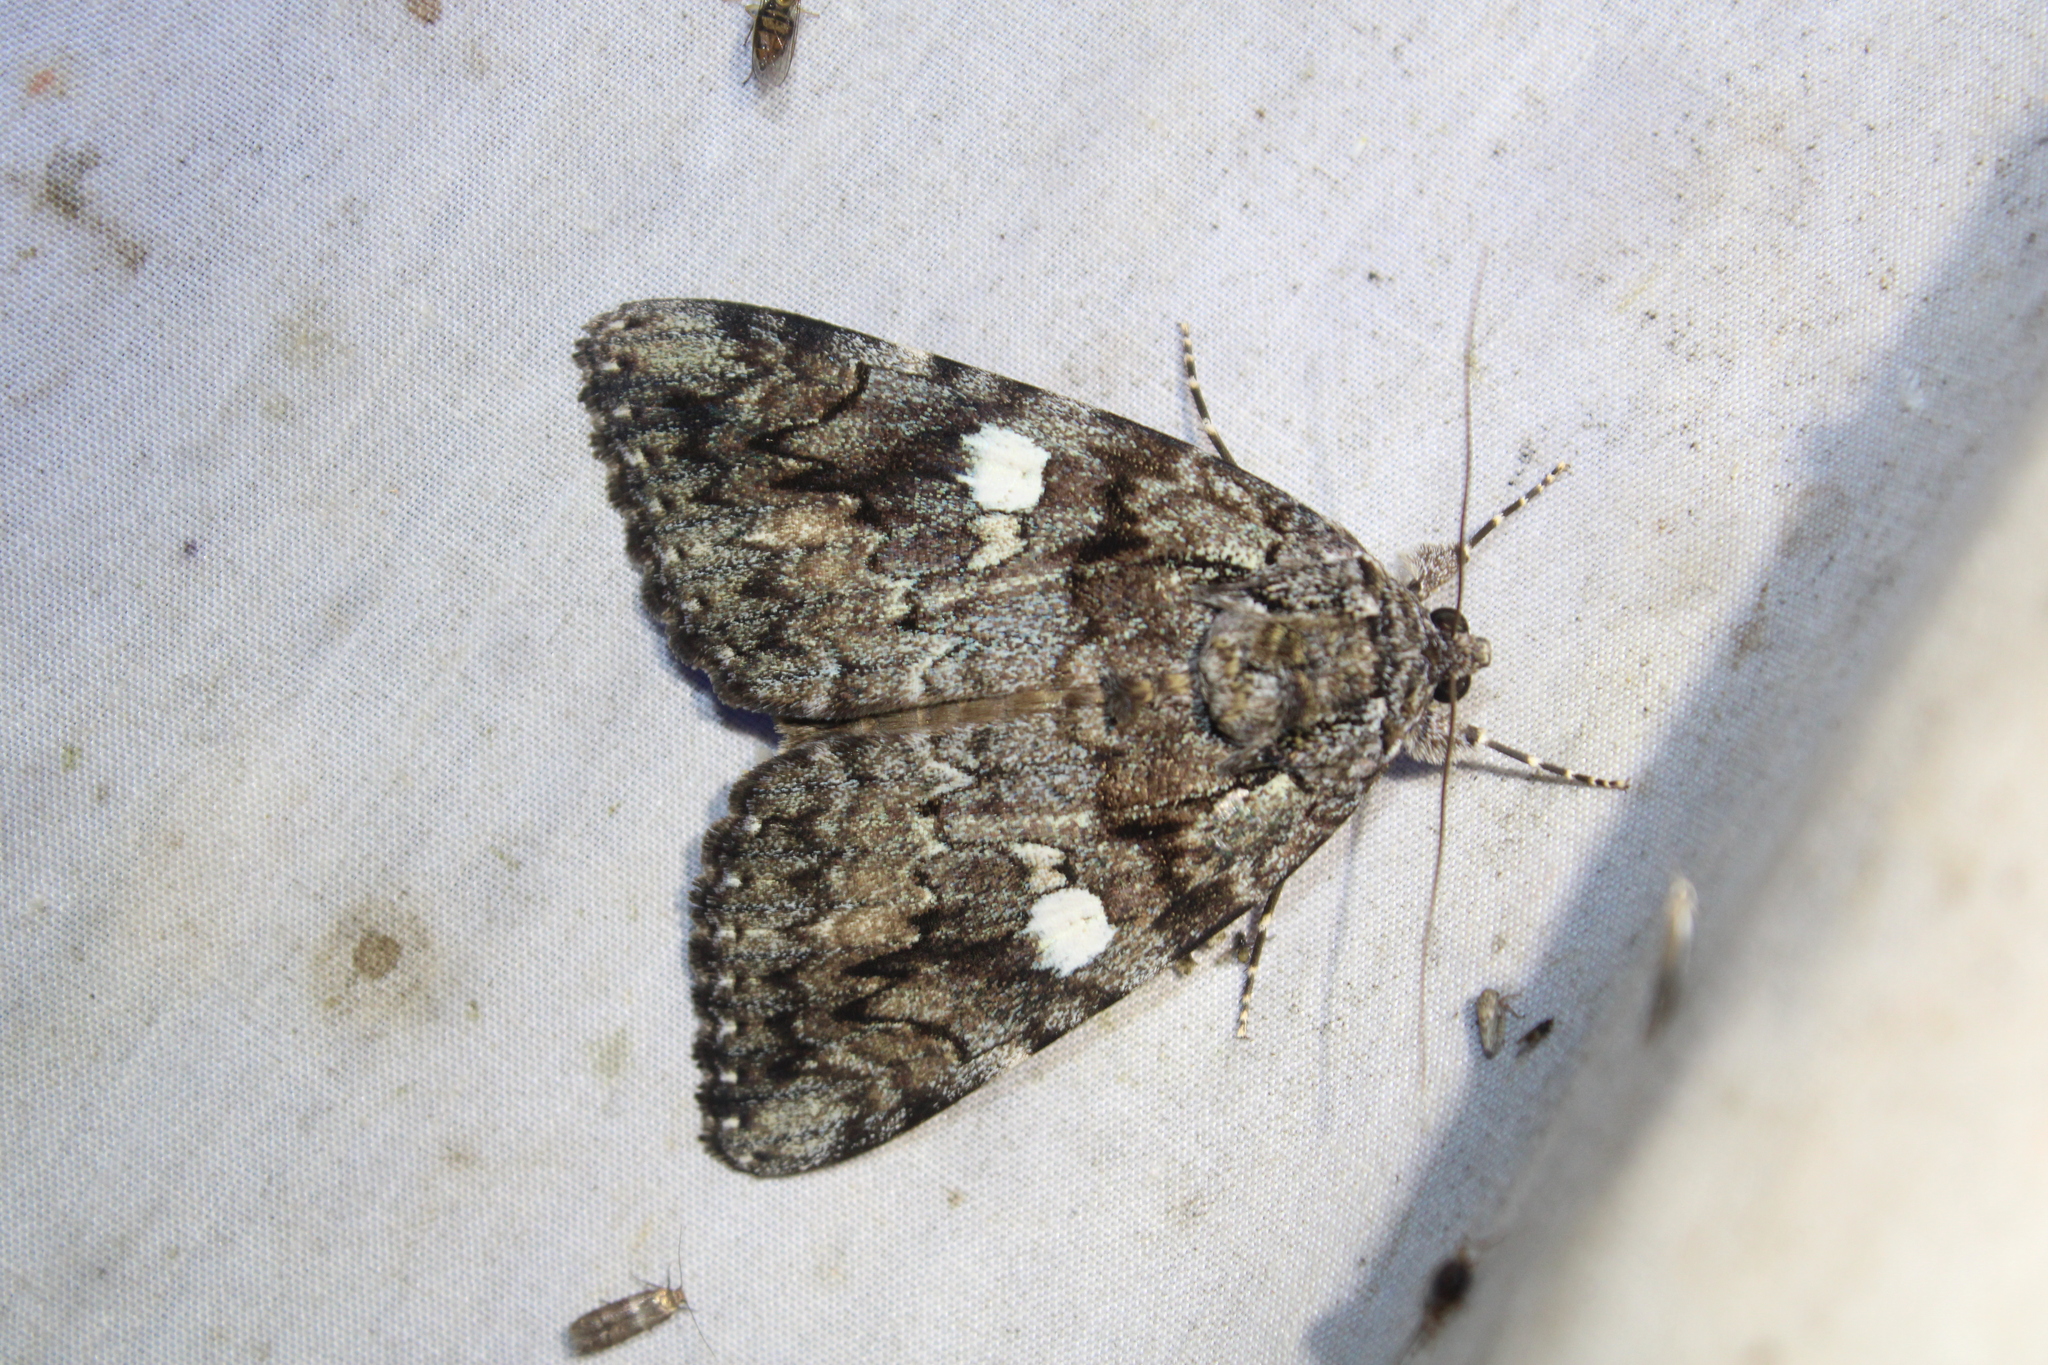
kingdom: Animalia
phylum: Arthropoda
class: Insecta
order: Lepidoptera
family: Erebidae
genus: Catocala
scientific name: Catocala ilia
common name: Ilia underwing
